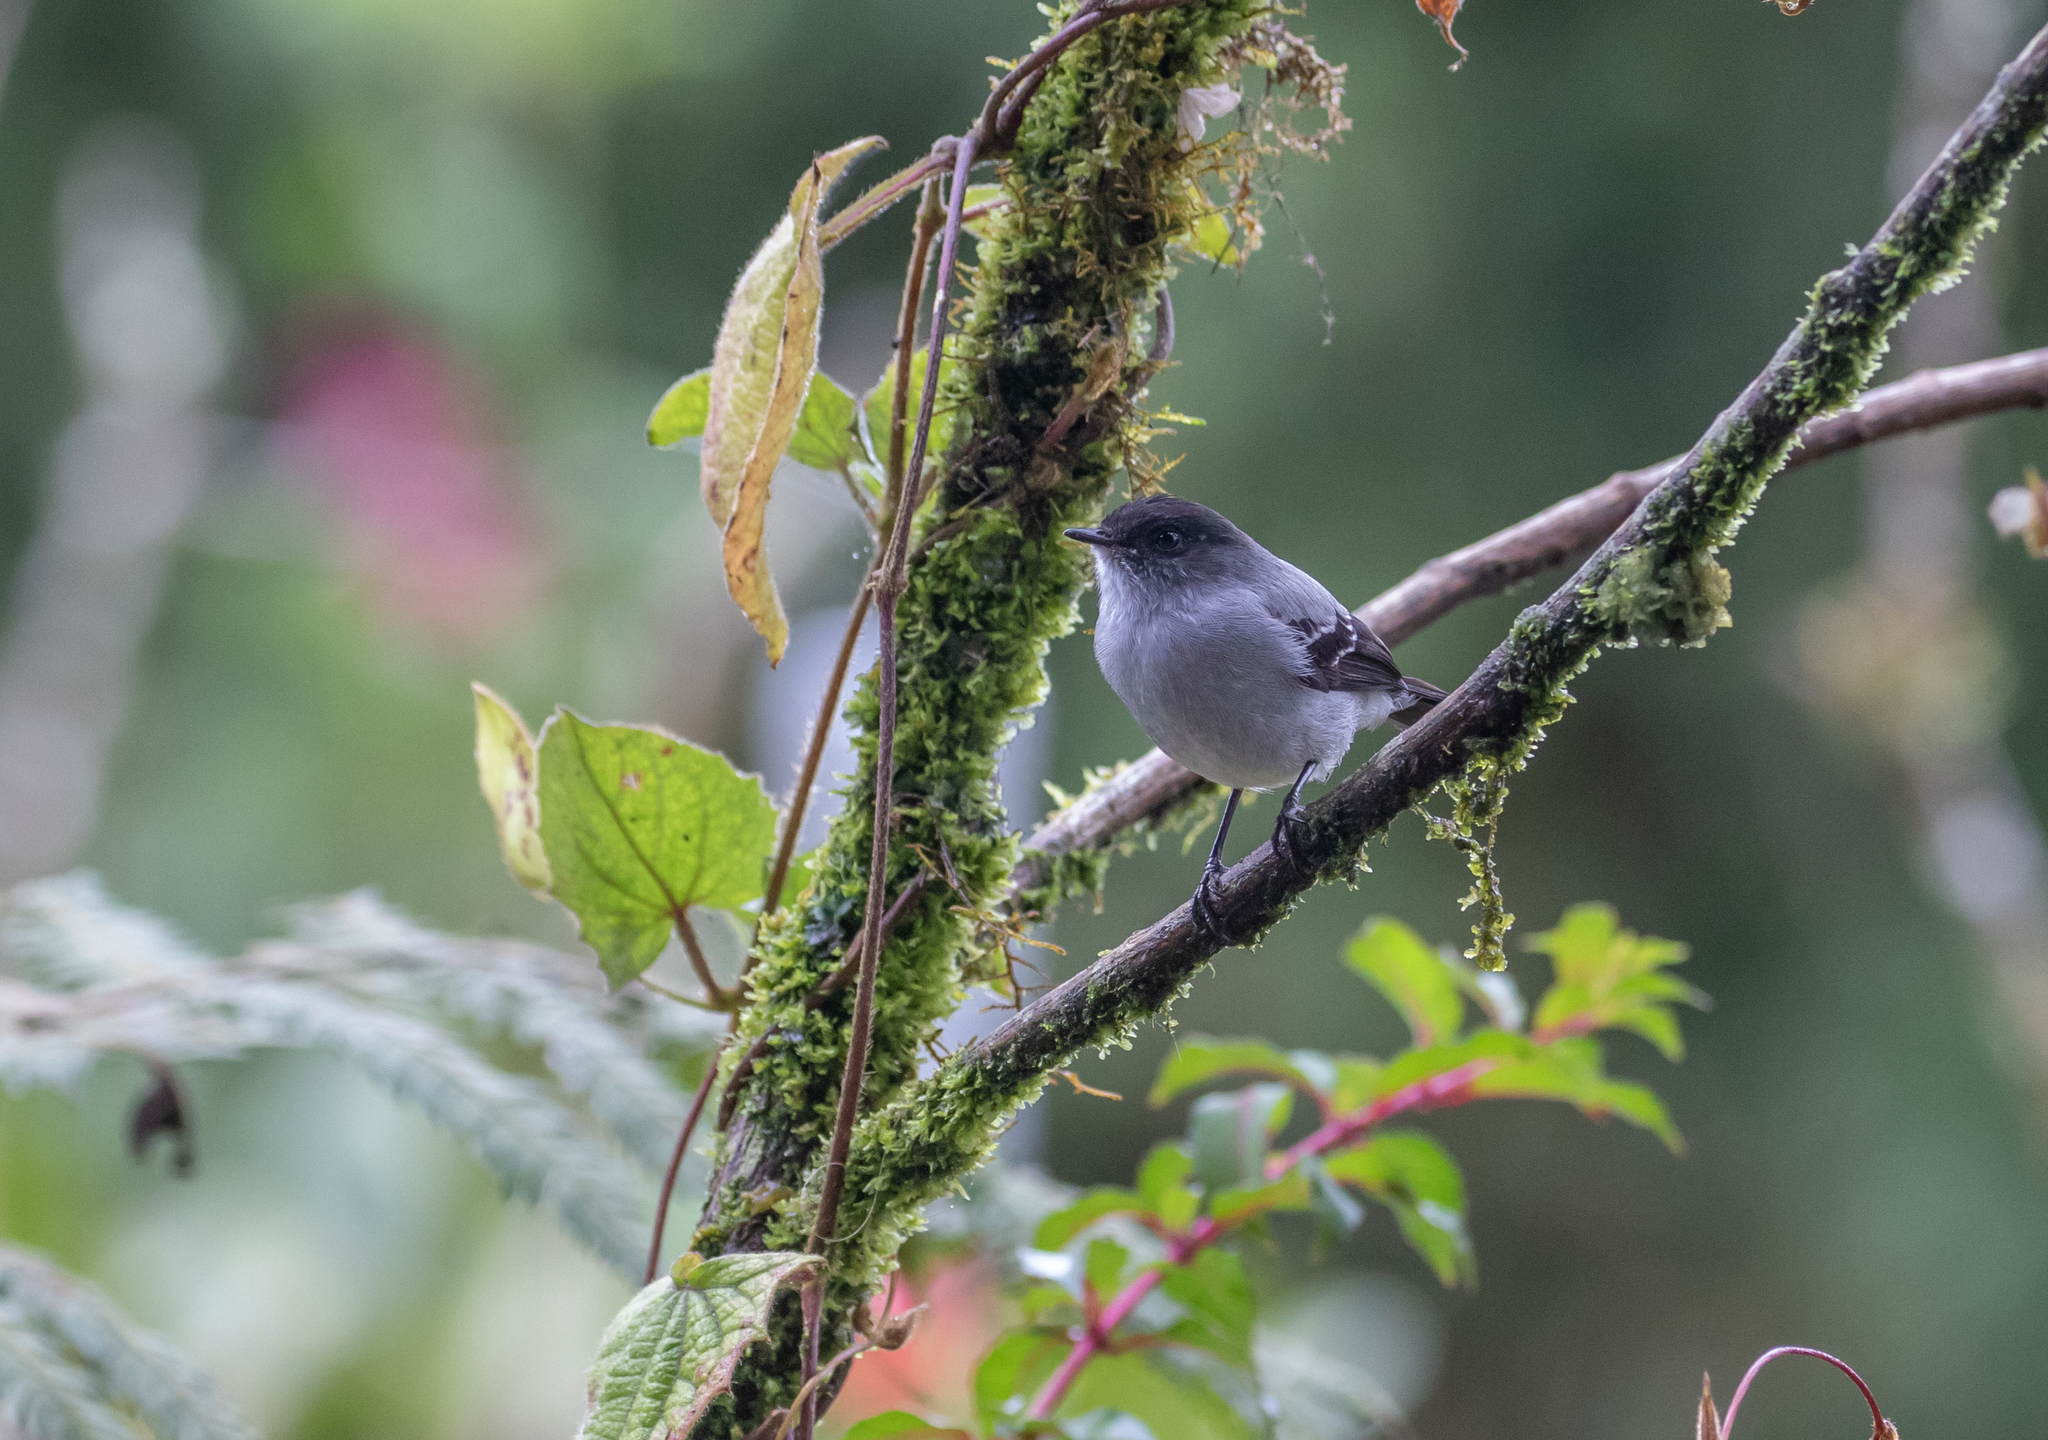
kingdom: Animalia
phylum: Chordata
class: Aves
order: Passeriformes
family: Tyrannidae
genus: Serpophaga
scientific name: Serpophaga cinerea
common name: Torrent tyrannulet
